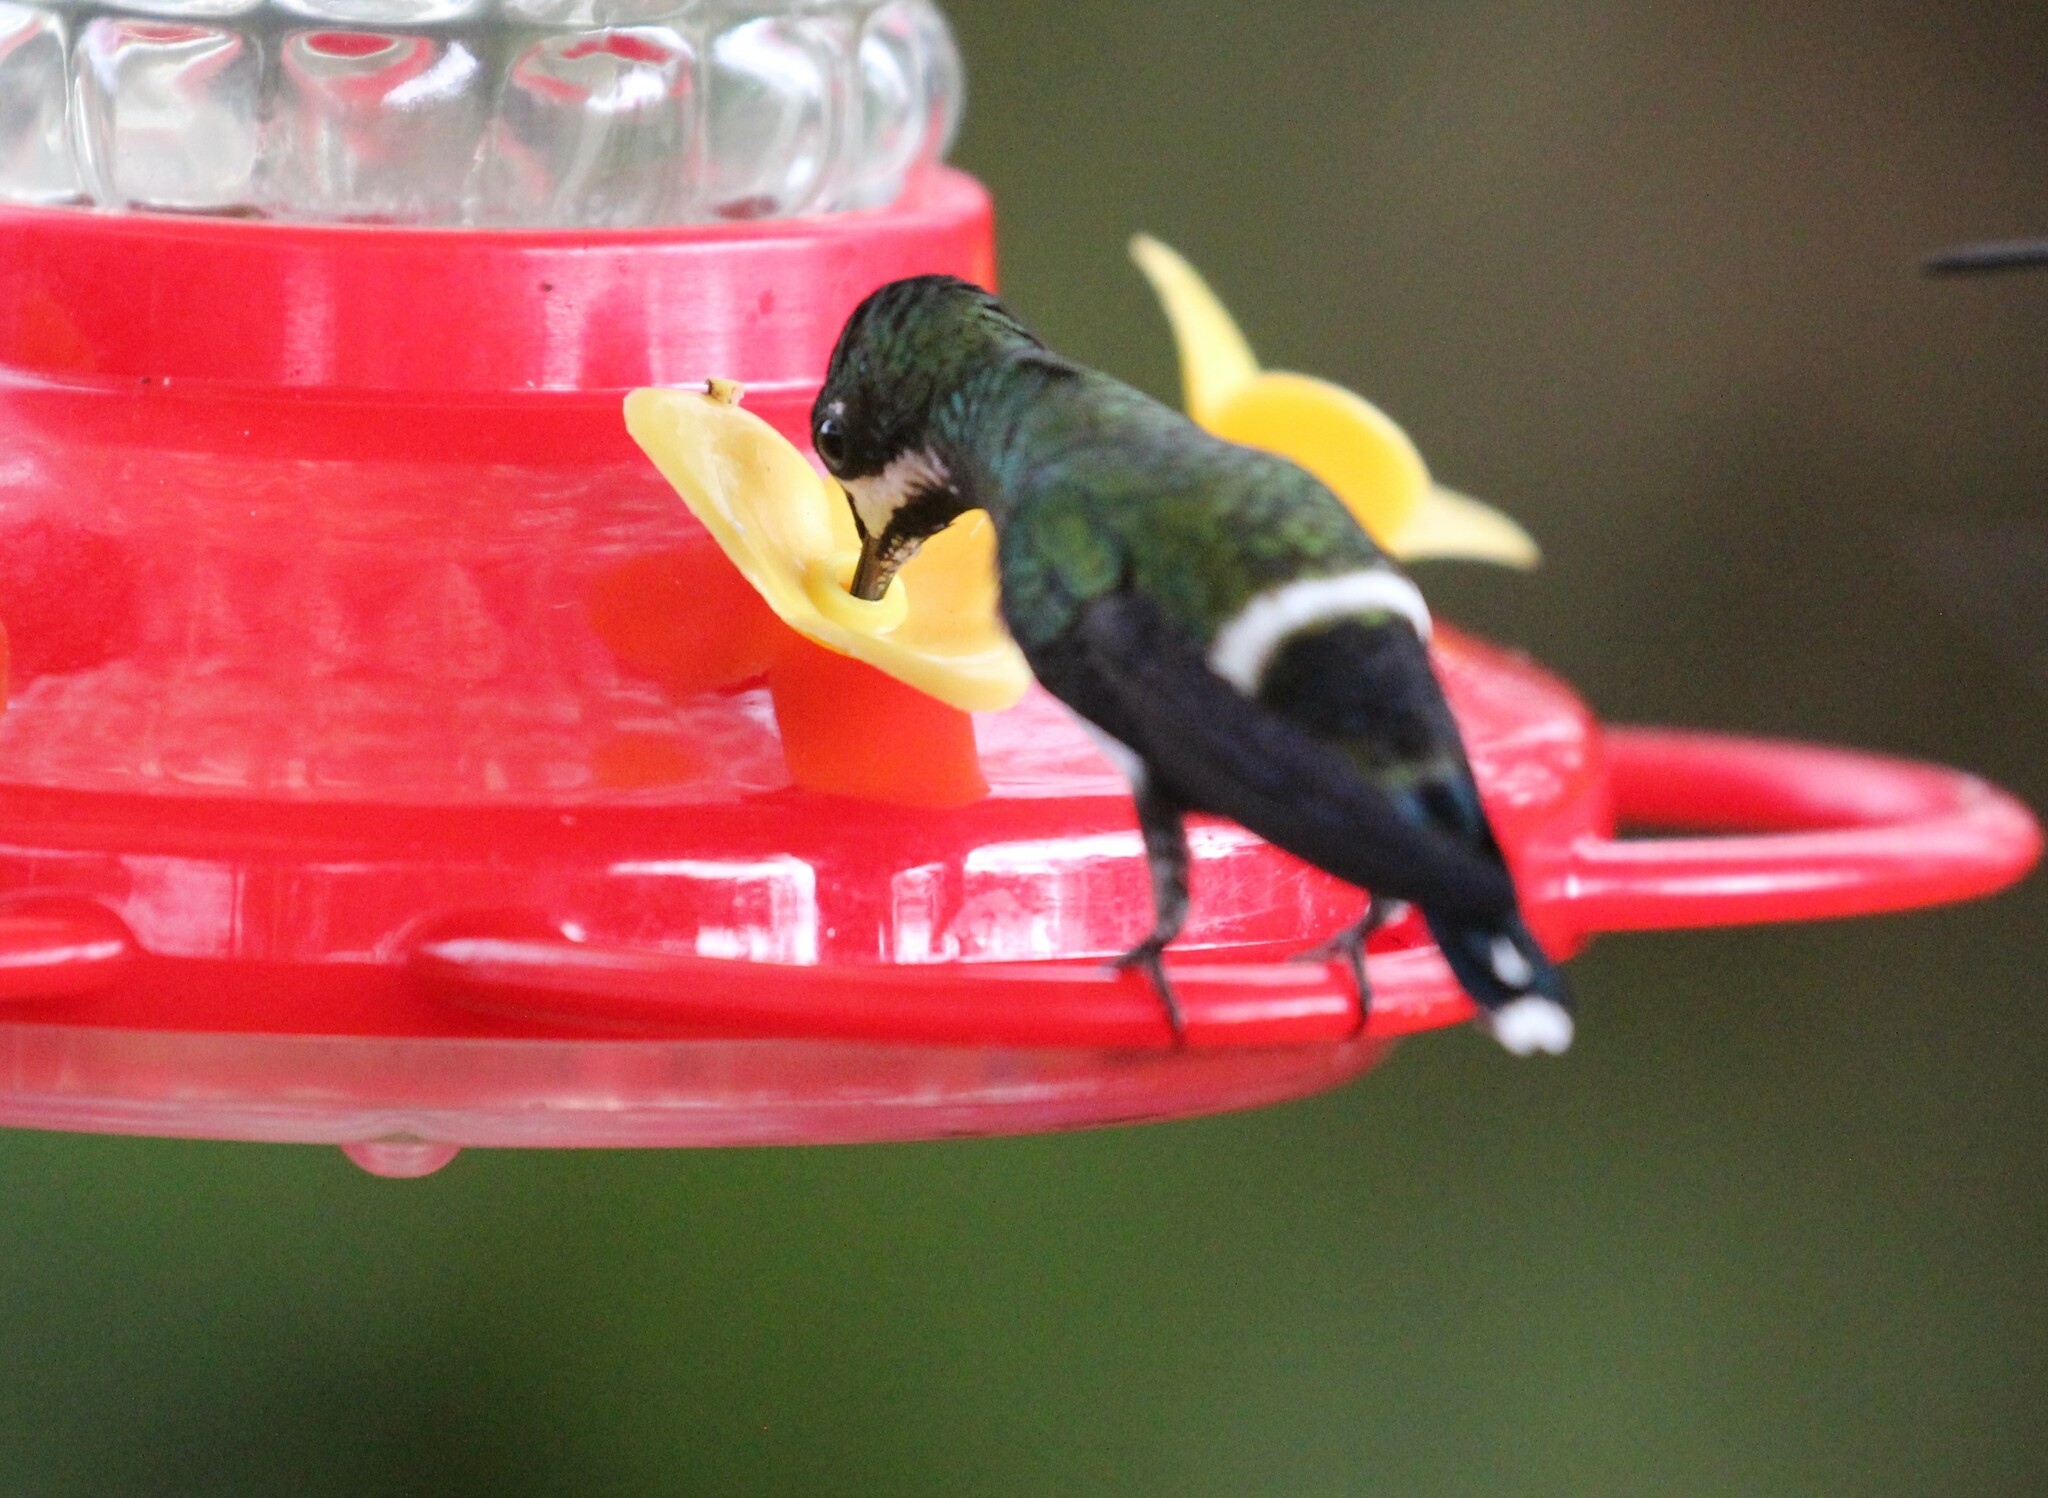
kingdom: Animalia
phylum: Chordata
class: Aves
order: Apodiformes
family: Trochilidae
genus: Discosura
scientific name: Discosura conversii
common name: Green thorntail
